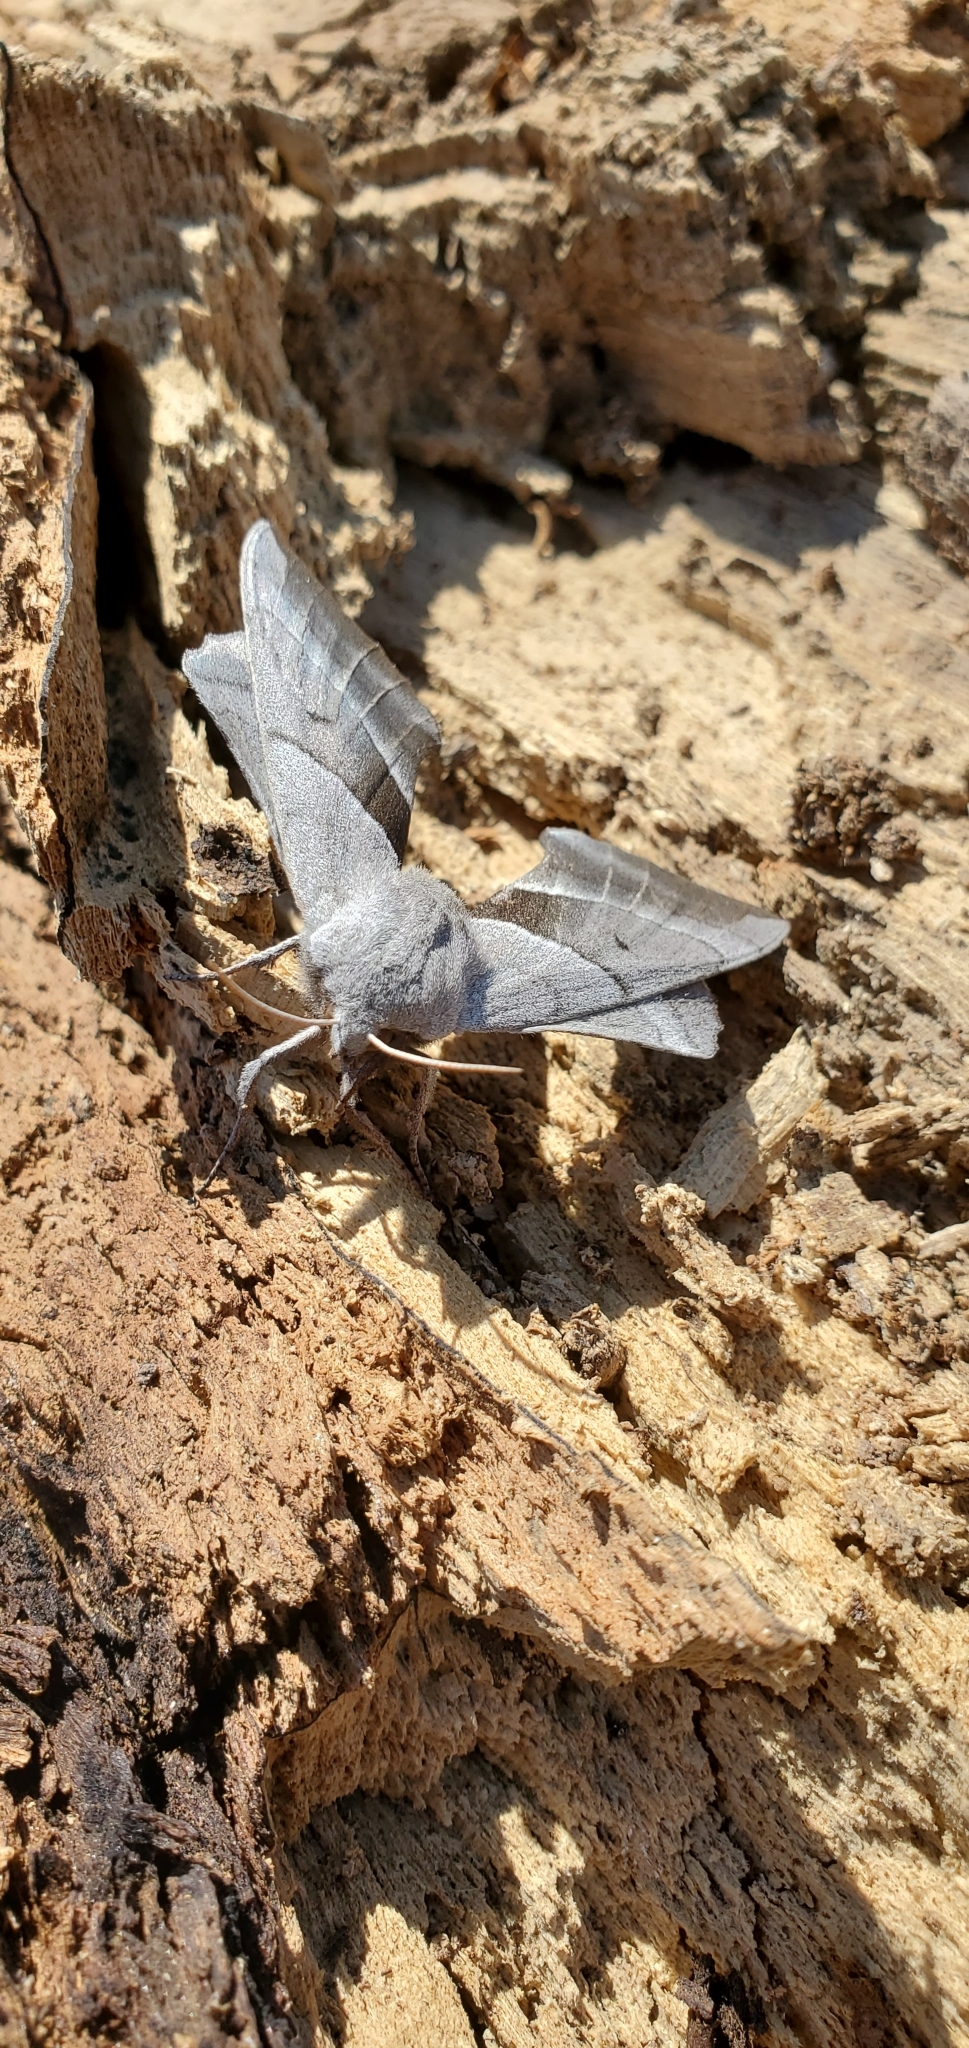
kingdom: Animalia
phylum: Arthropoda
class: Insecta
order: Lepidoptera
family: Sphingidae
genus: Amorpha
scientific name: Amorpha juglandis
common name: Walnut sphinx
